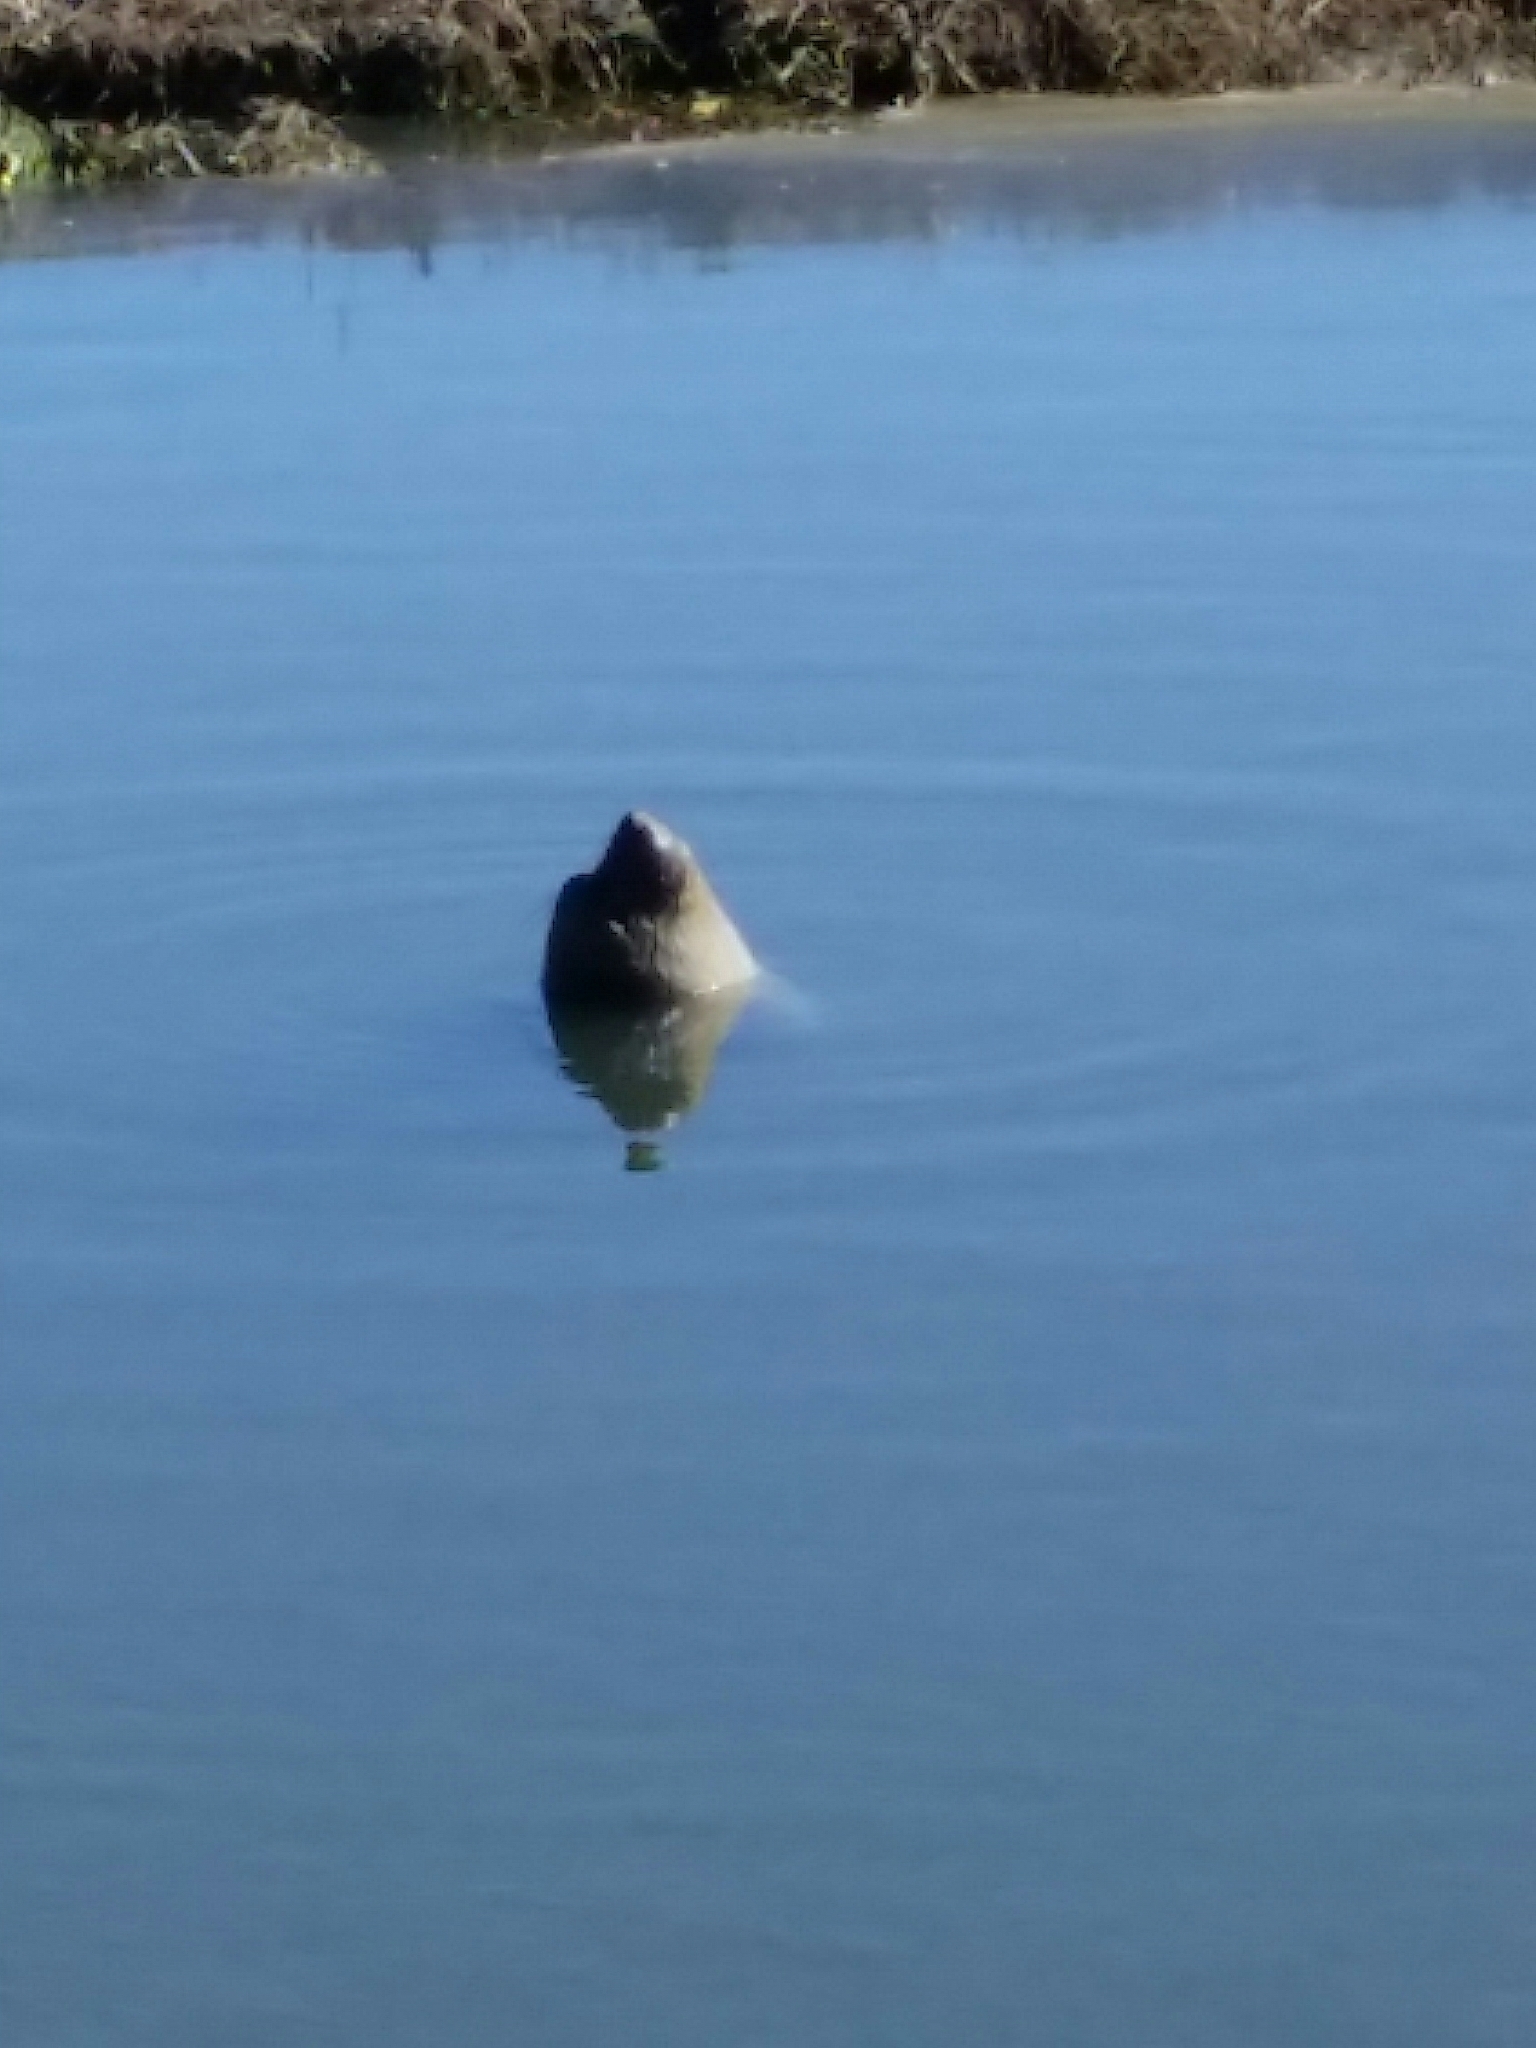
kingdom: Animalia
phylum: Chordata
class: Mammalia
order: Carnivora
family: Phocidae
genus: Mirounga
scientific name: Mirounga angustirostris
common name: Northern elephant seal
